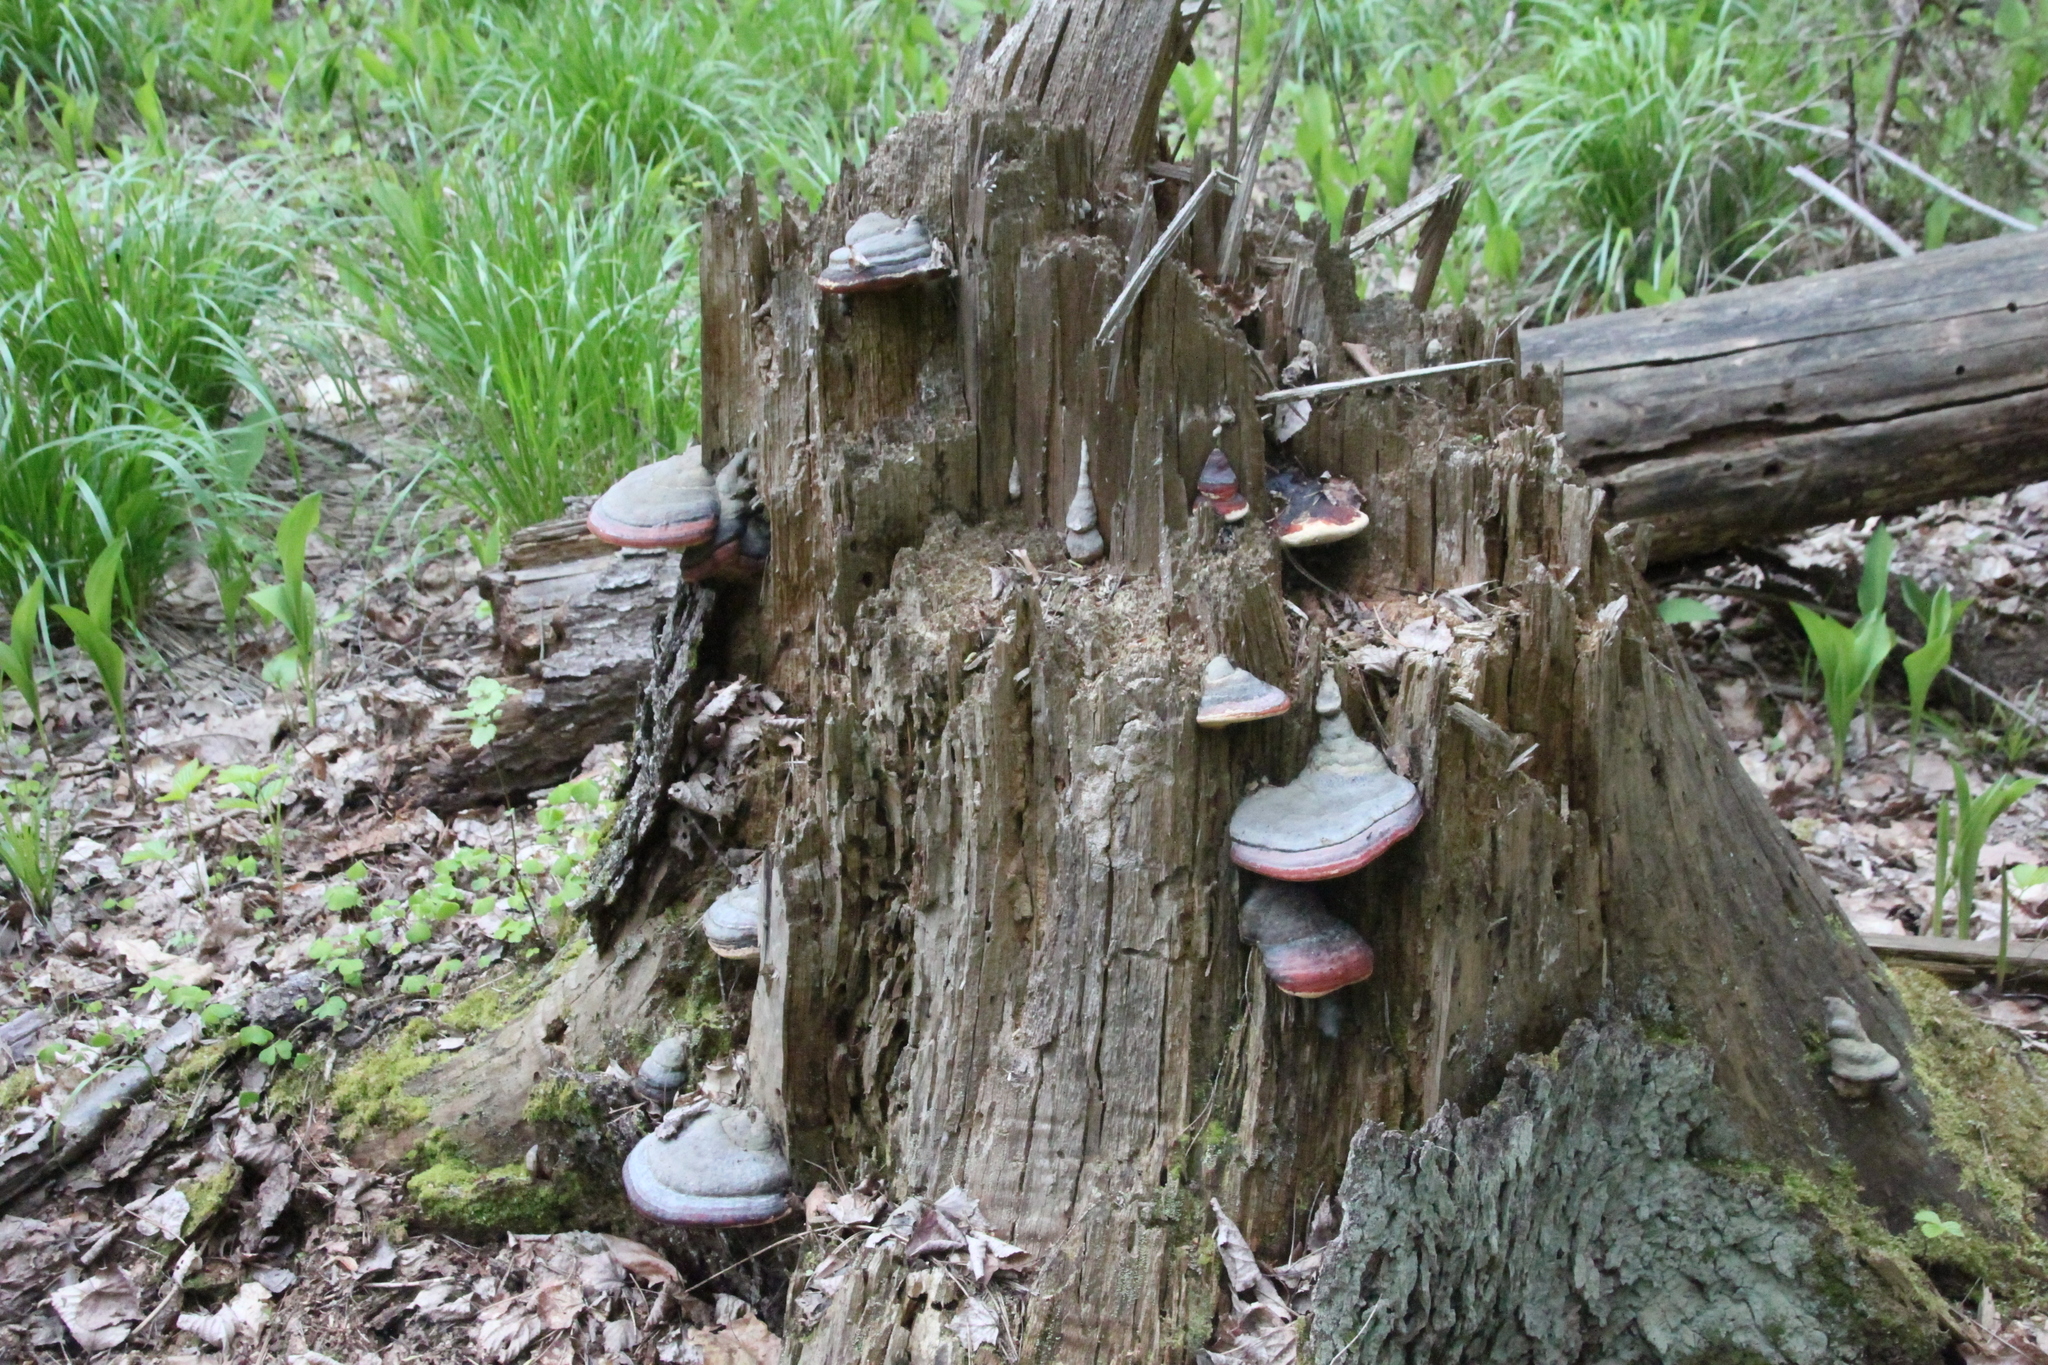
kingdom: Fungi
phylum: Basidiomycota
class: Agaricomycetes
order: Polyporales
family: Fomitopsidaceae
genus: Fomitopsis
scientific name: Fomitopsis pinicola
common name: Red-belted bracket
